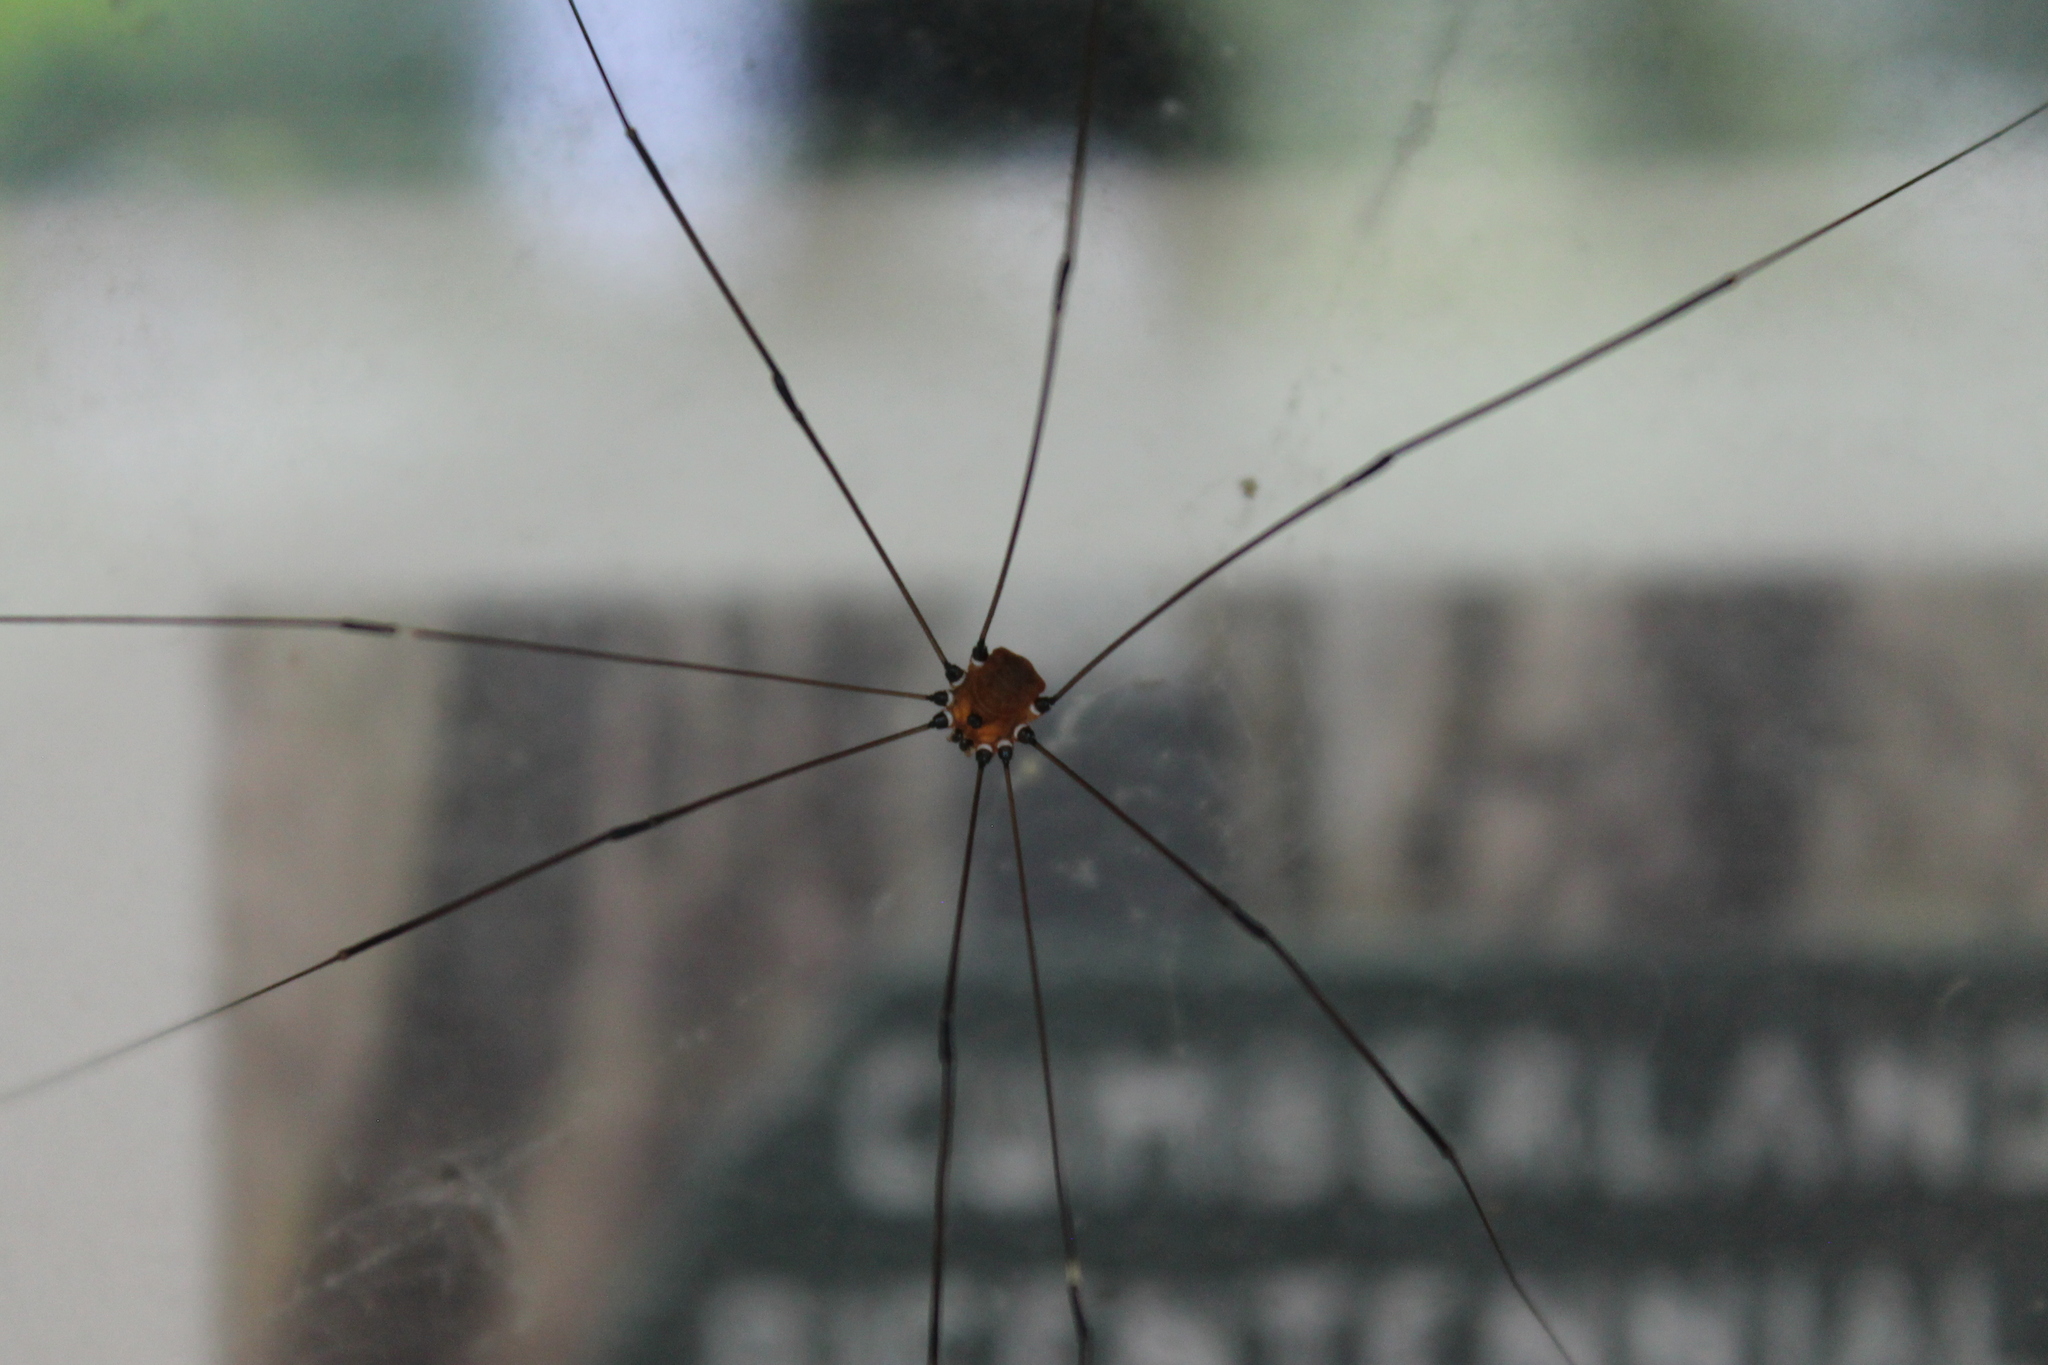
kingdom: Animalia
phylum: Arthropoda
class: Arachnida
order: Opiliones
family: Sclerosomatidae
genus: Leiobunum
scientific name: Leiobunum aldrichi
